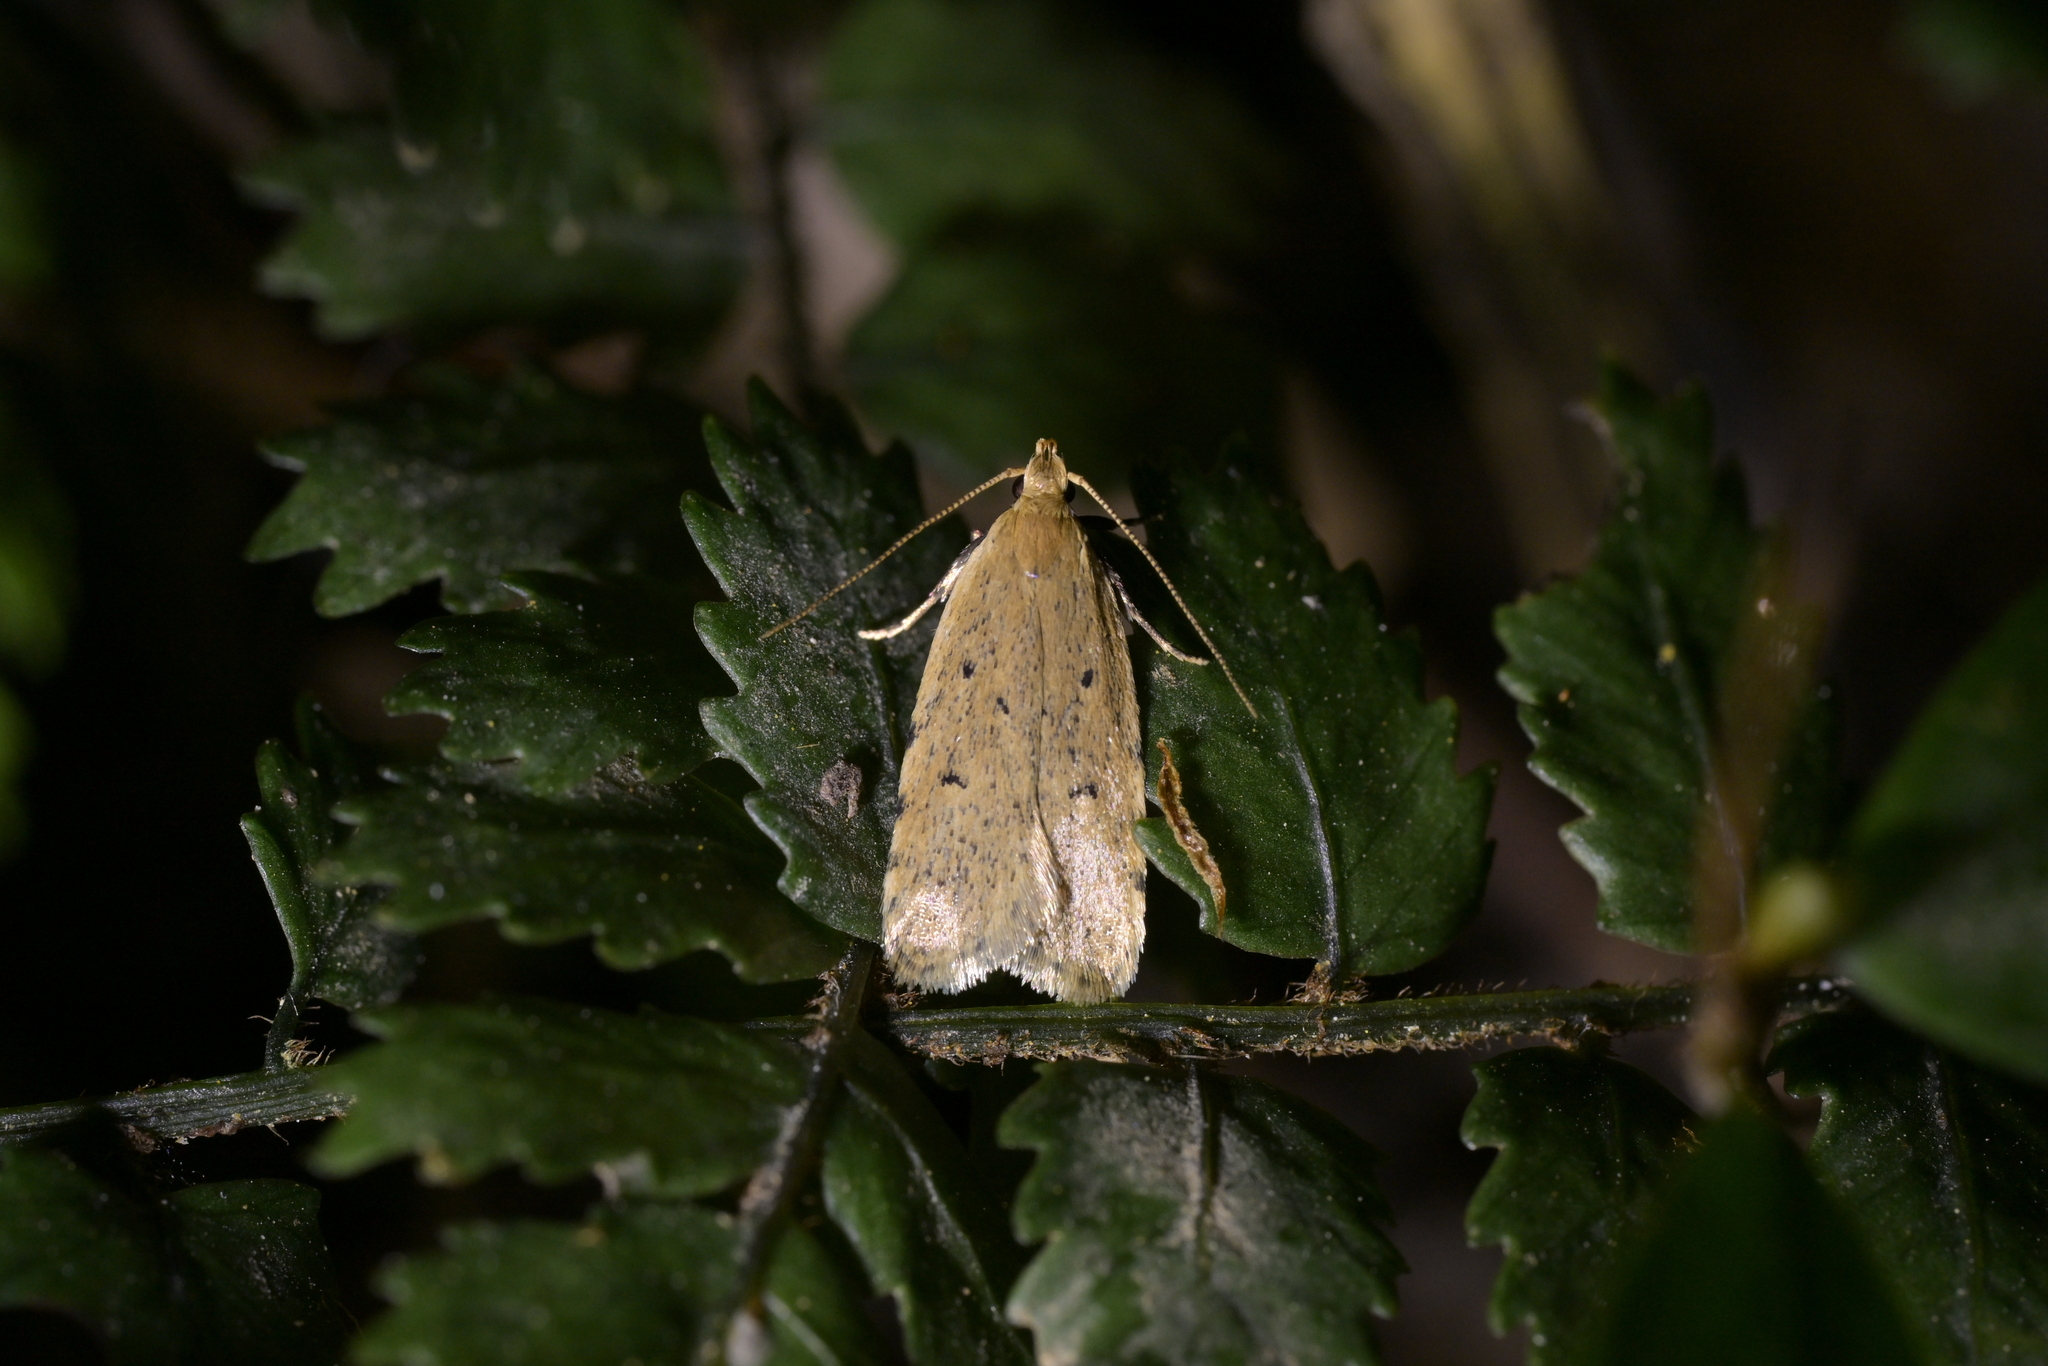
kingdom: Animalia
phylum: Arthropoda
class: Insecta
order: Lepidoptera
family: Oecophoridae
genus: Gymnobathra
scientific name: Gymnobathra calliploca
